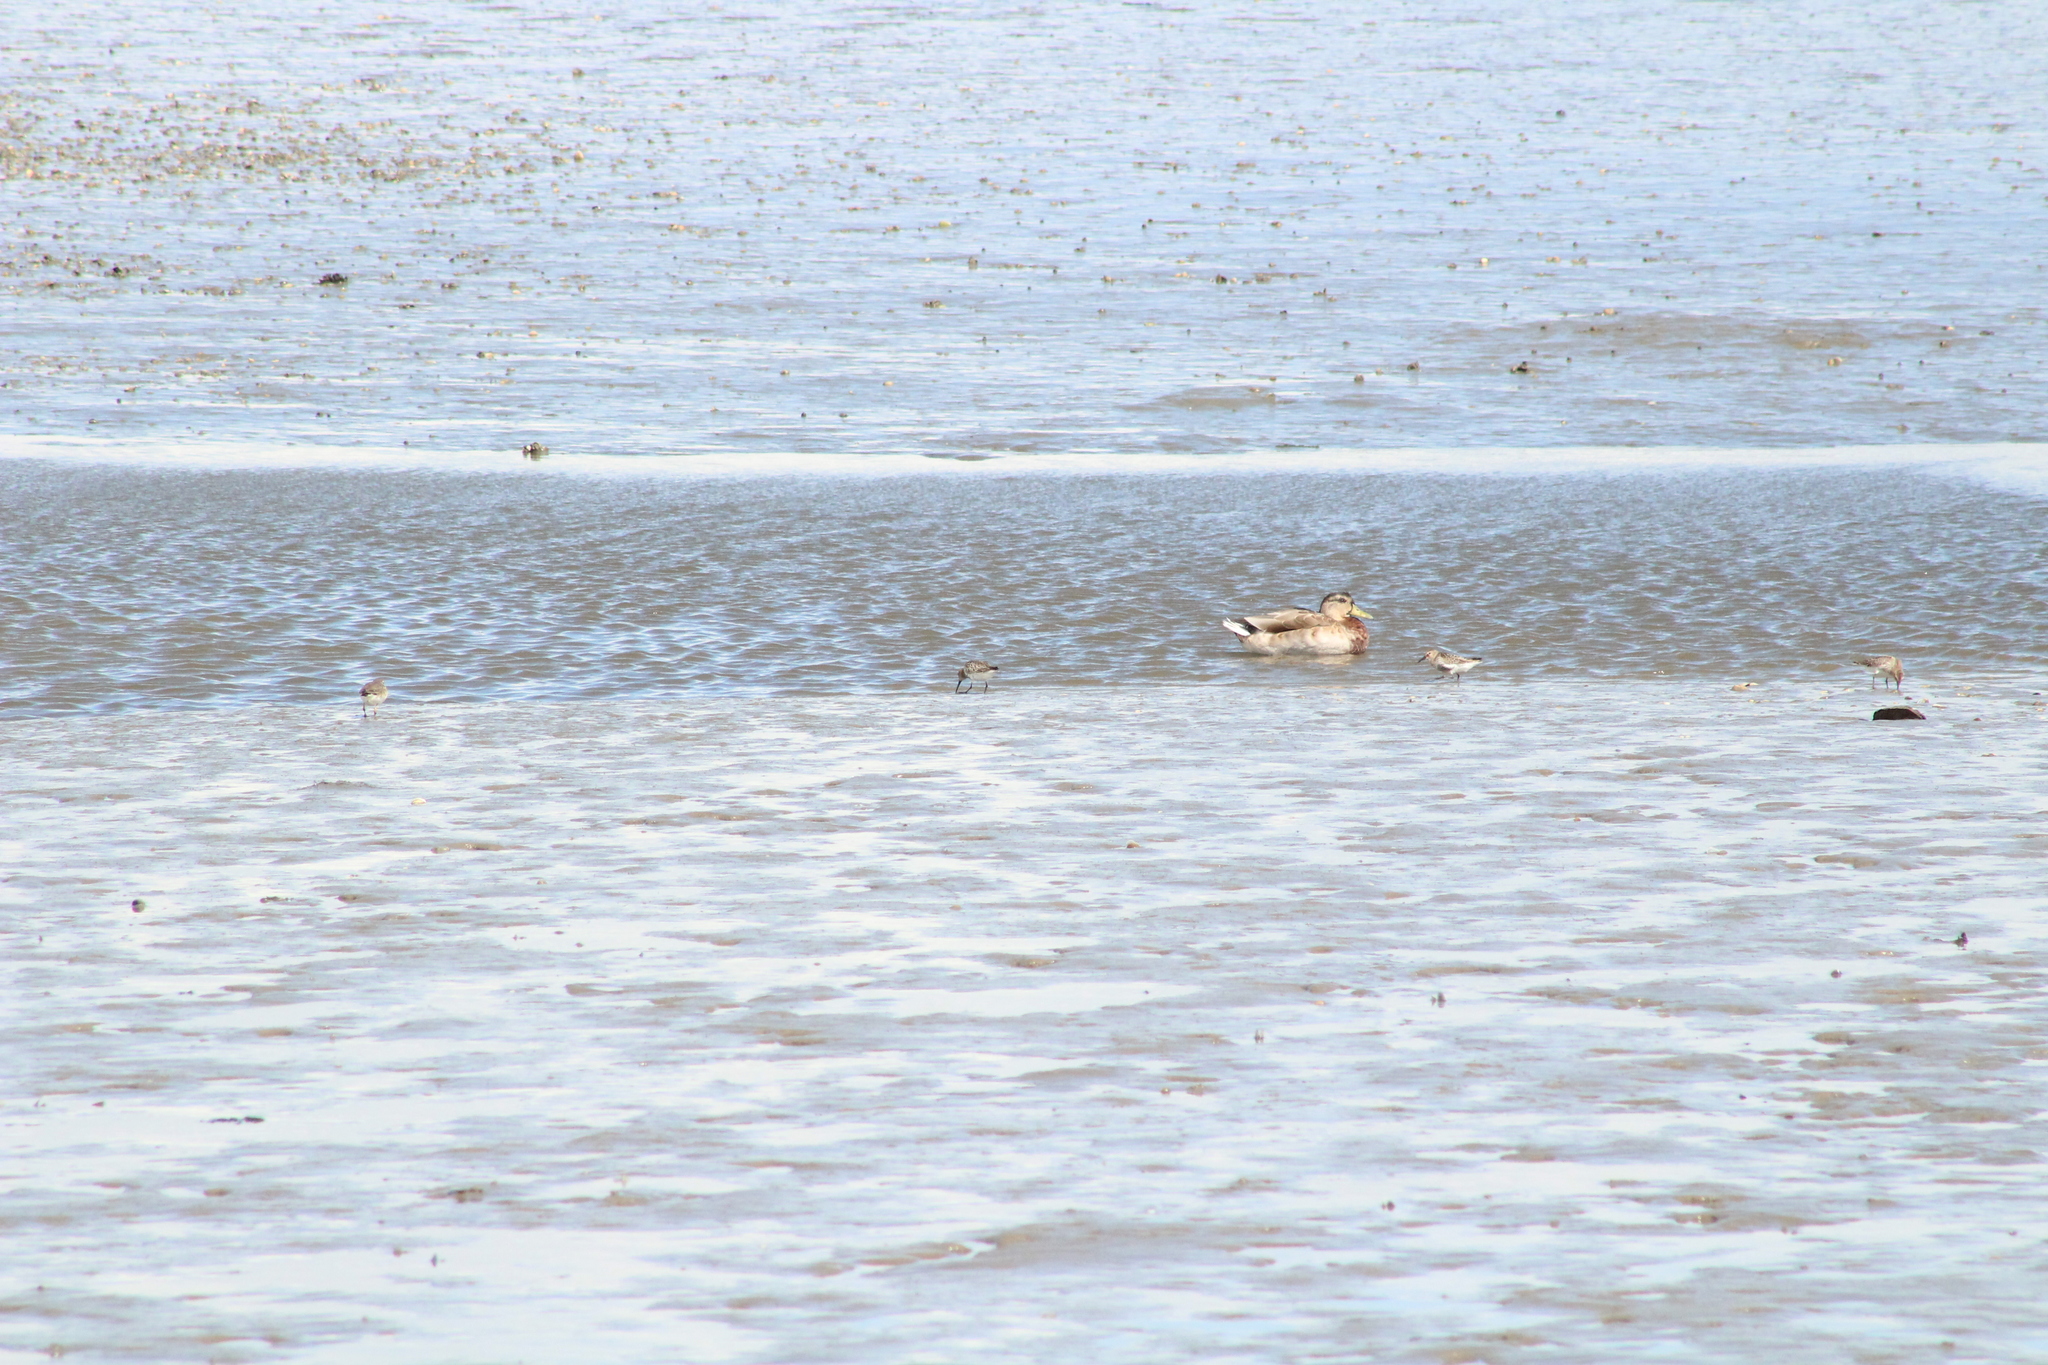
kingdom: Animalia
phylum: Chordata
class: Aves
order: Anseriformes
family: Anatidae
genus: Anas
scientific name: Anas platyrhynchos
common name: Mallard
